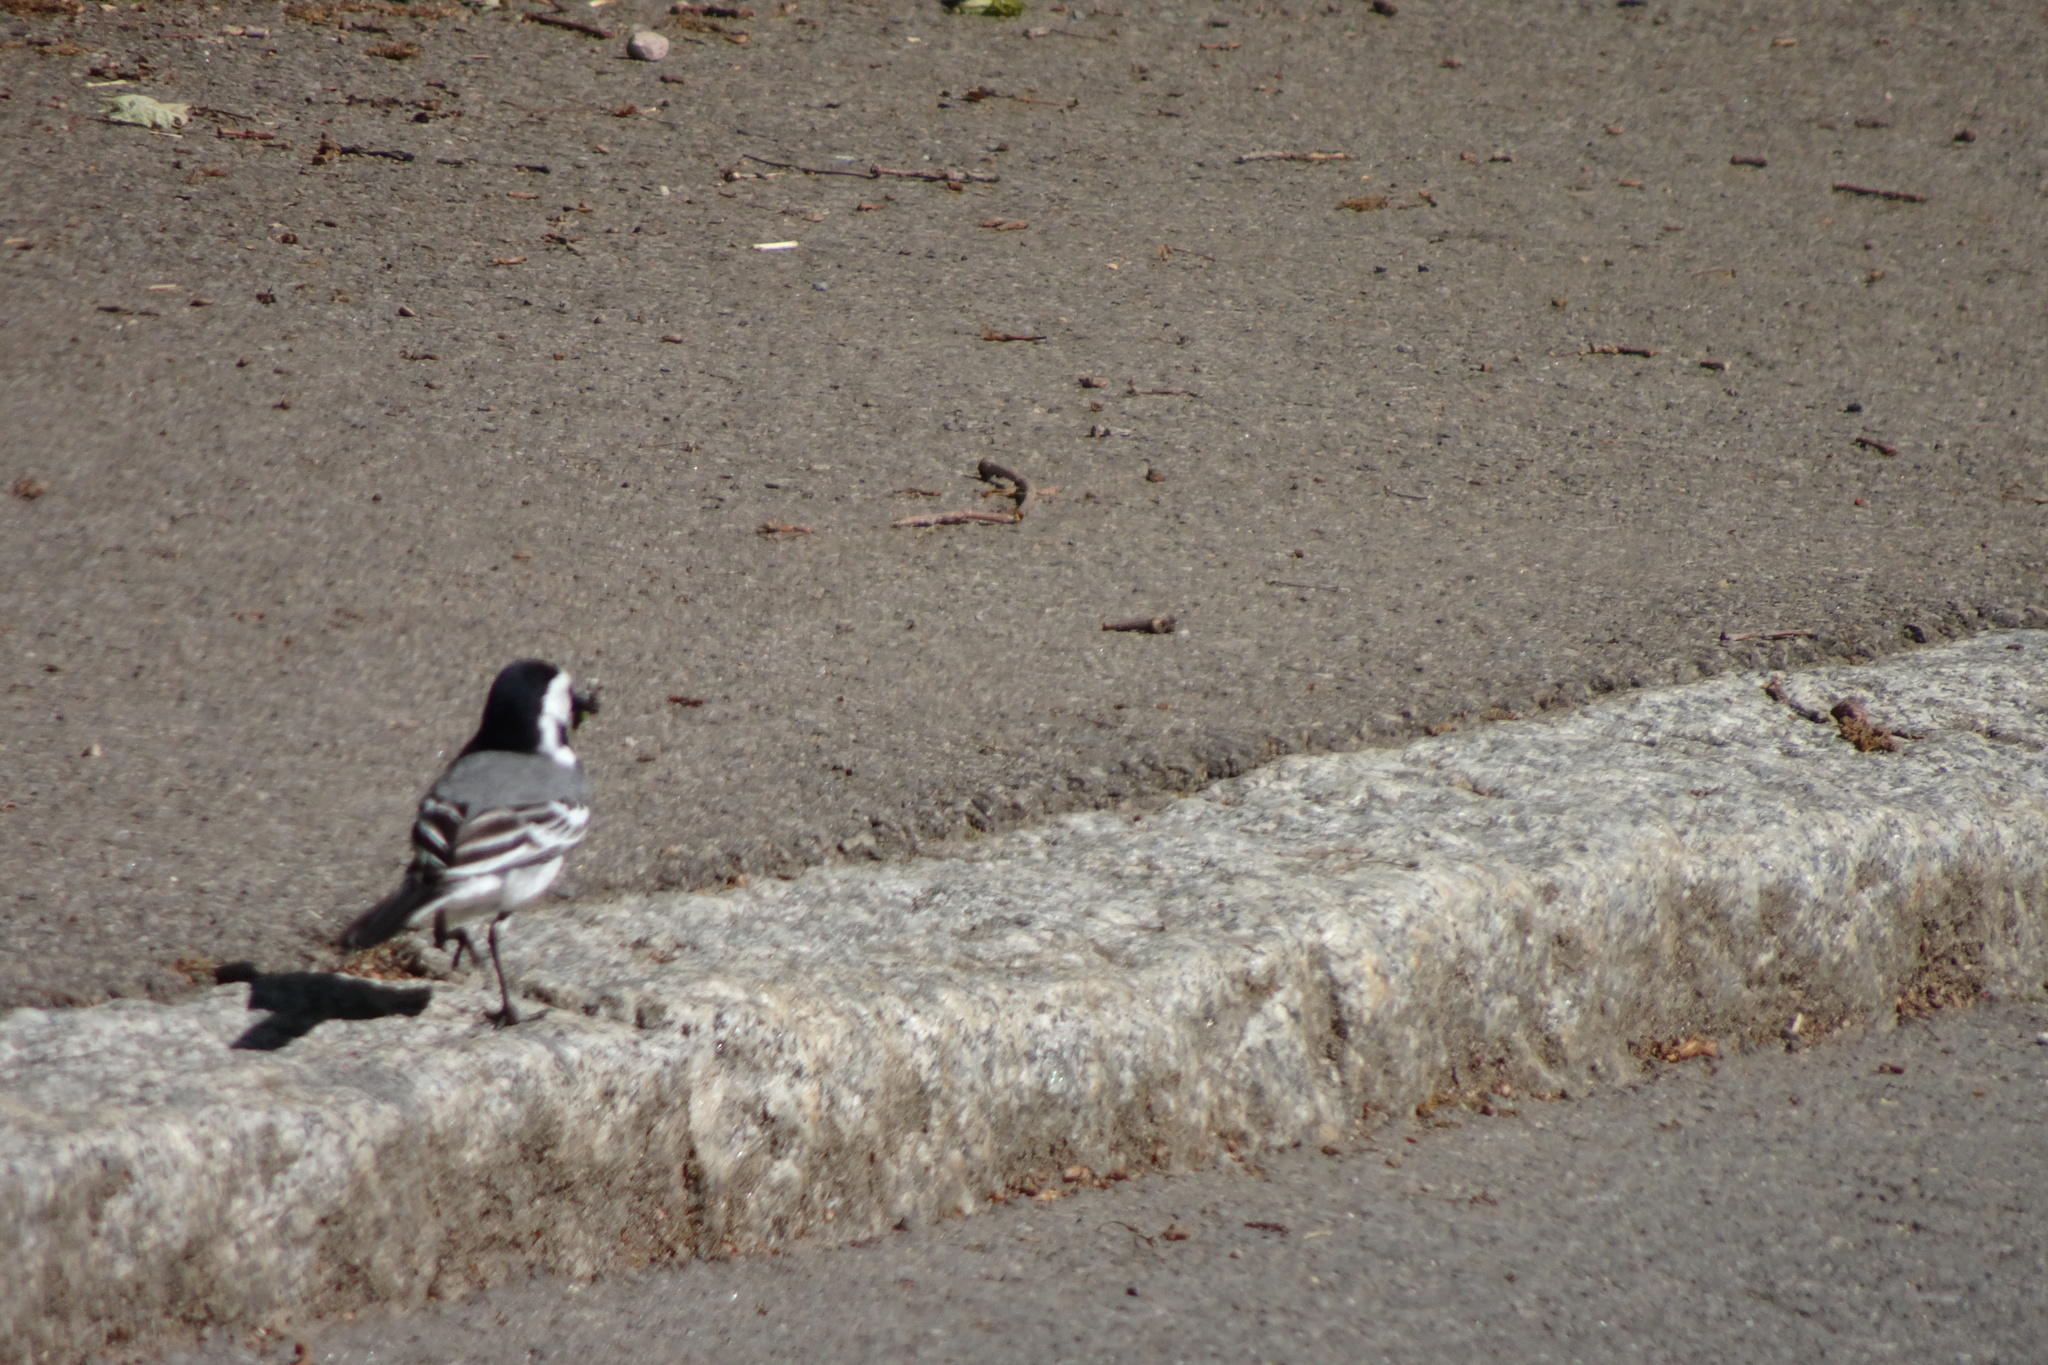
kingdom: Animalia
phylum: Chordata
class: Aves
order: Passeriformes
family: Motacillidae
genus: Motacilla
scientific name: Motacilla alba
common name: White wagtail
